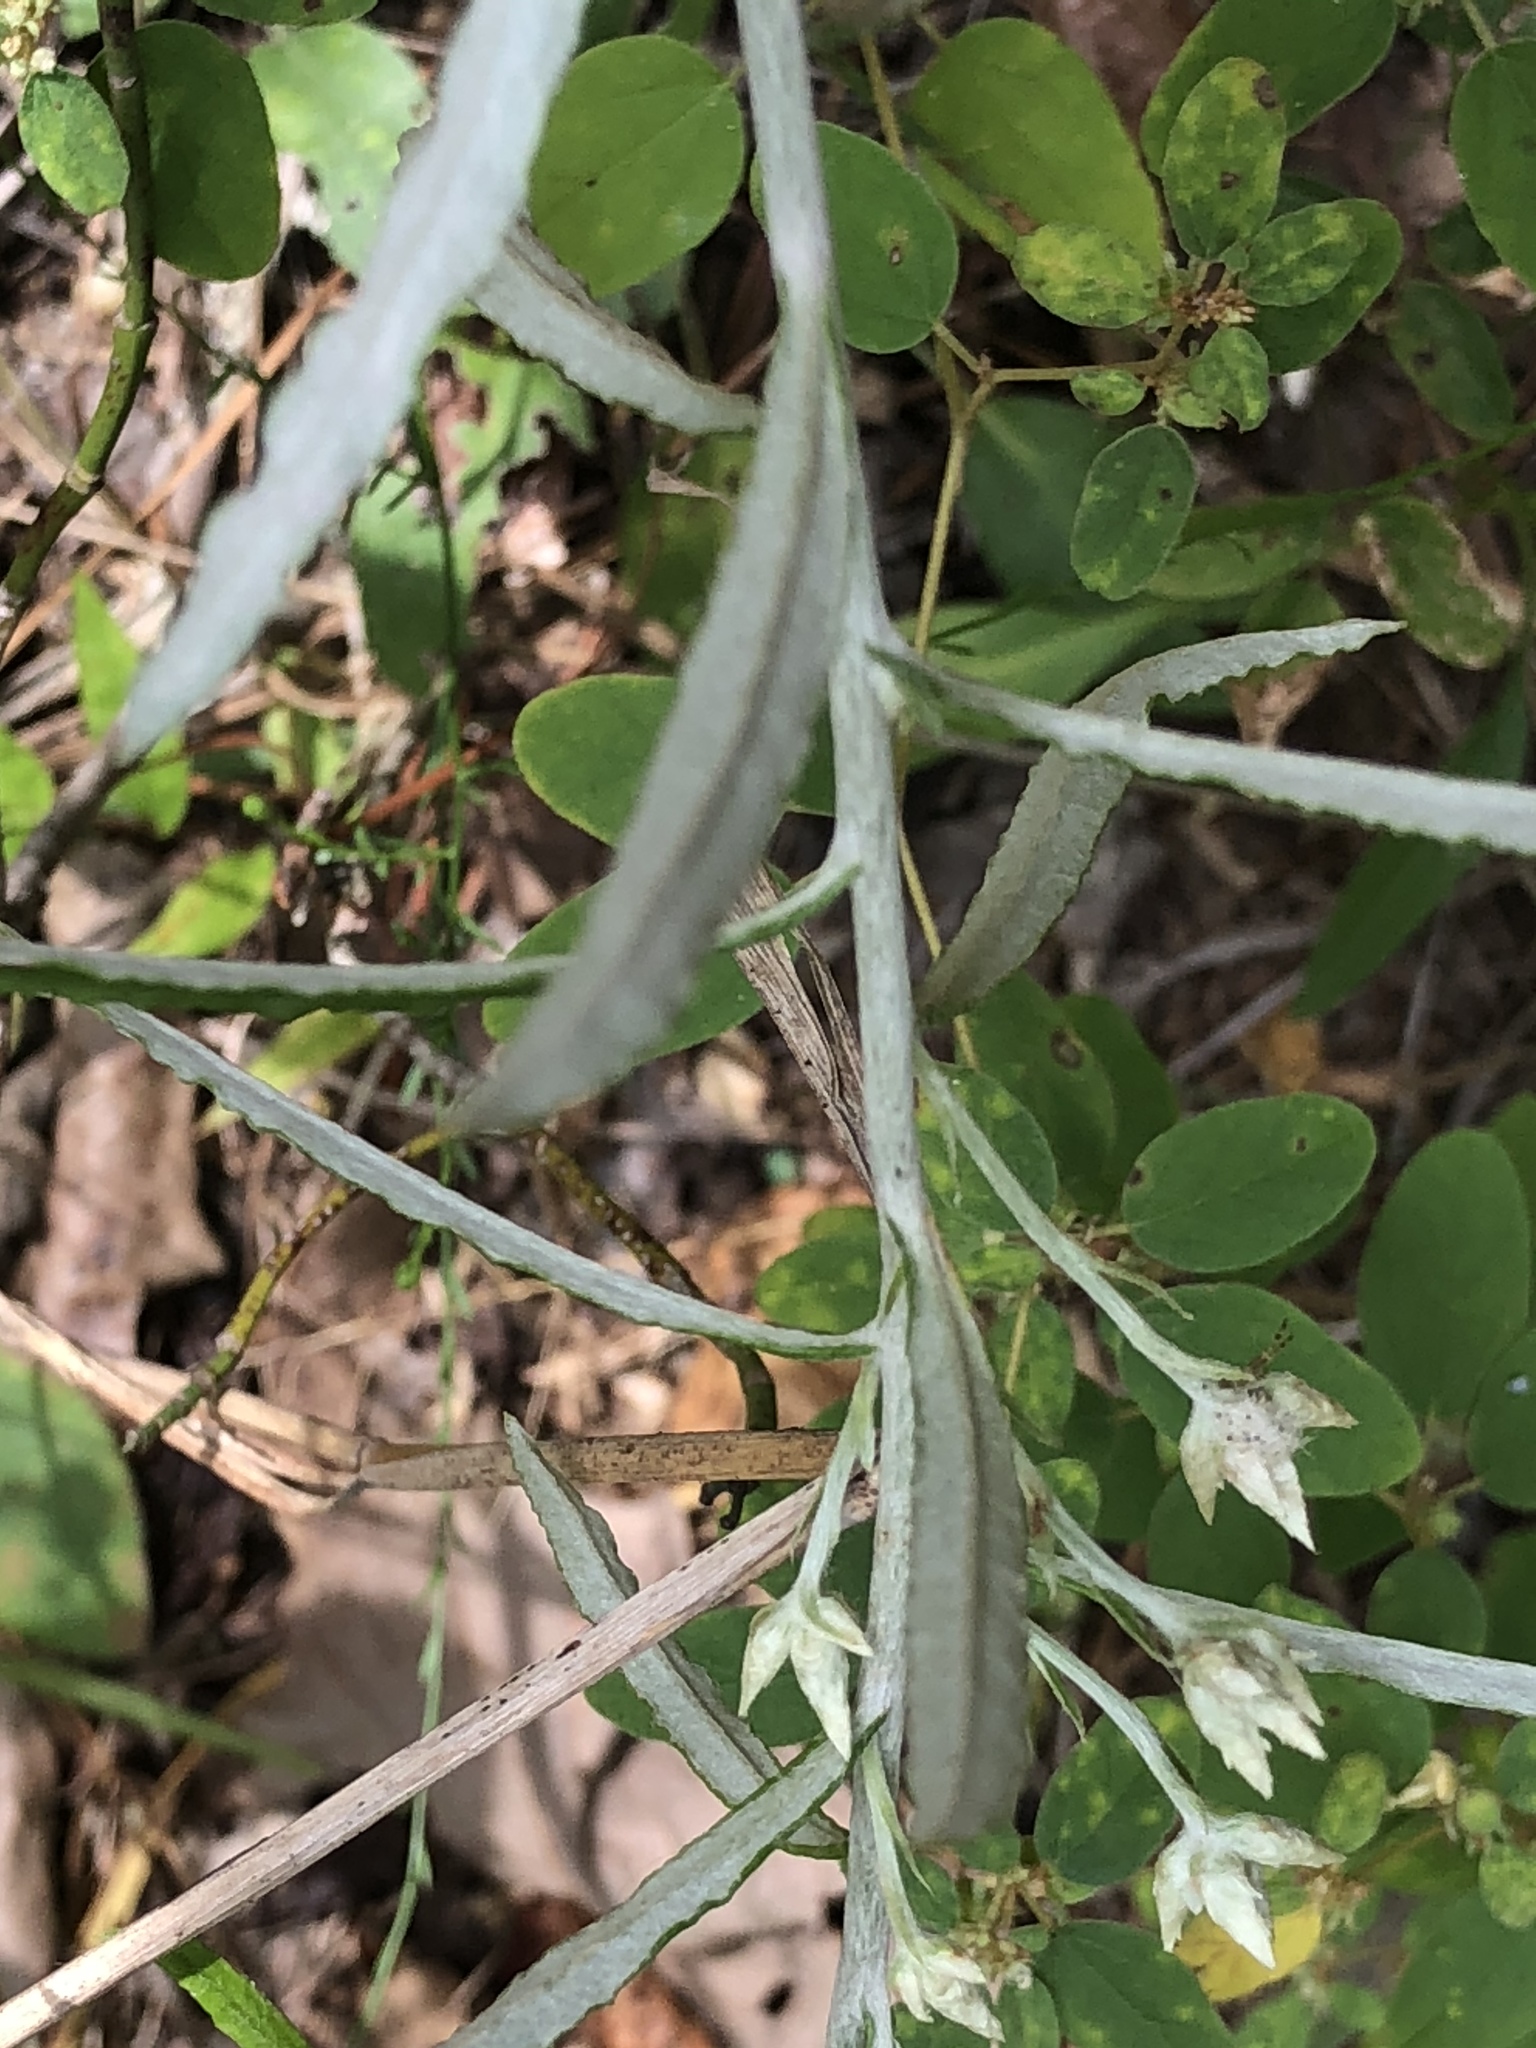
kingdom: Plantae
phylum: Tracheophyta
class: Magnoliopsida
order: Asterales
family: Asteraceae
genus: Pseudognaphalium
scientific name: Pseudognaphalium obtusifolium
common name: Eastern rabbit-tobacco
